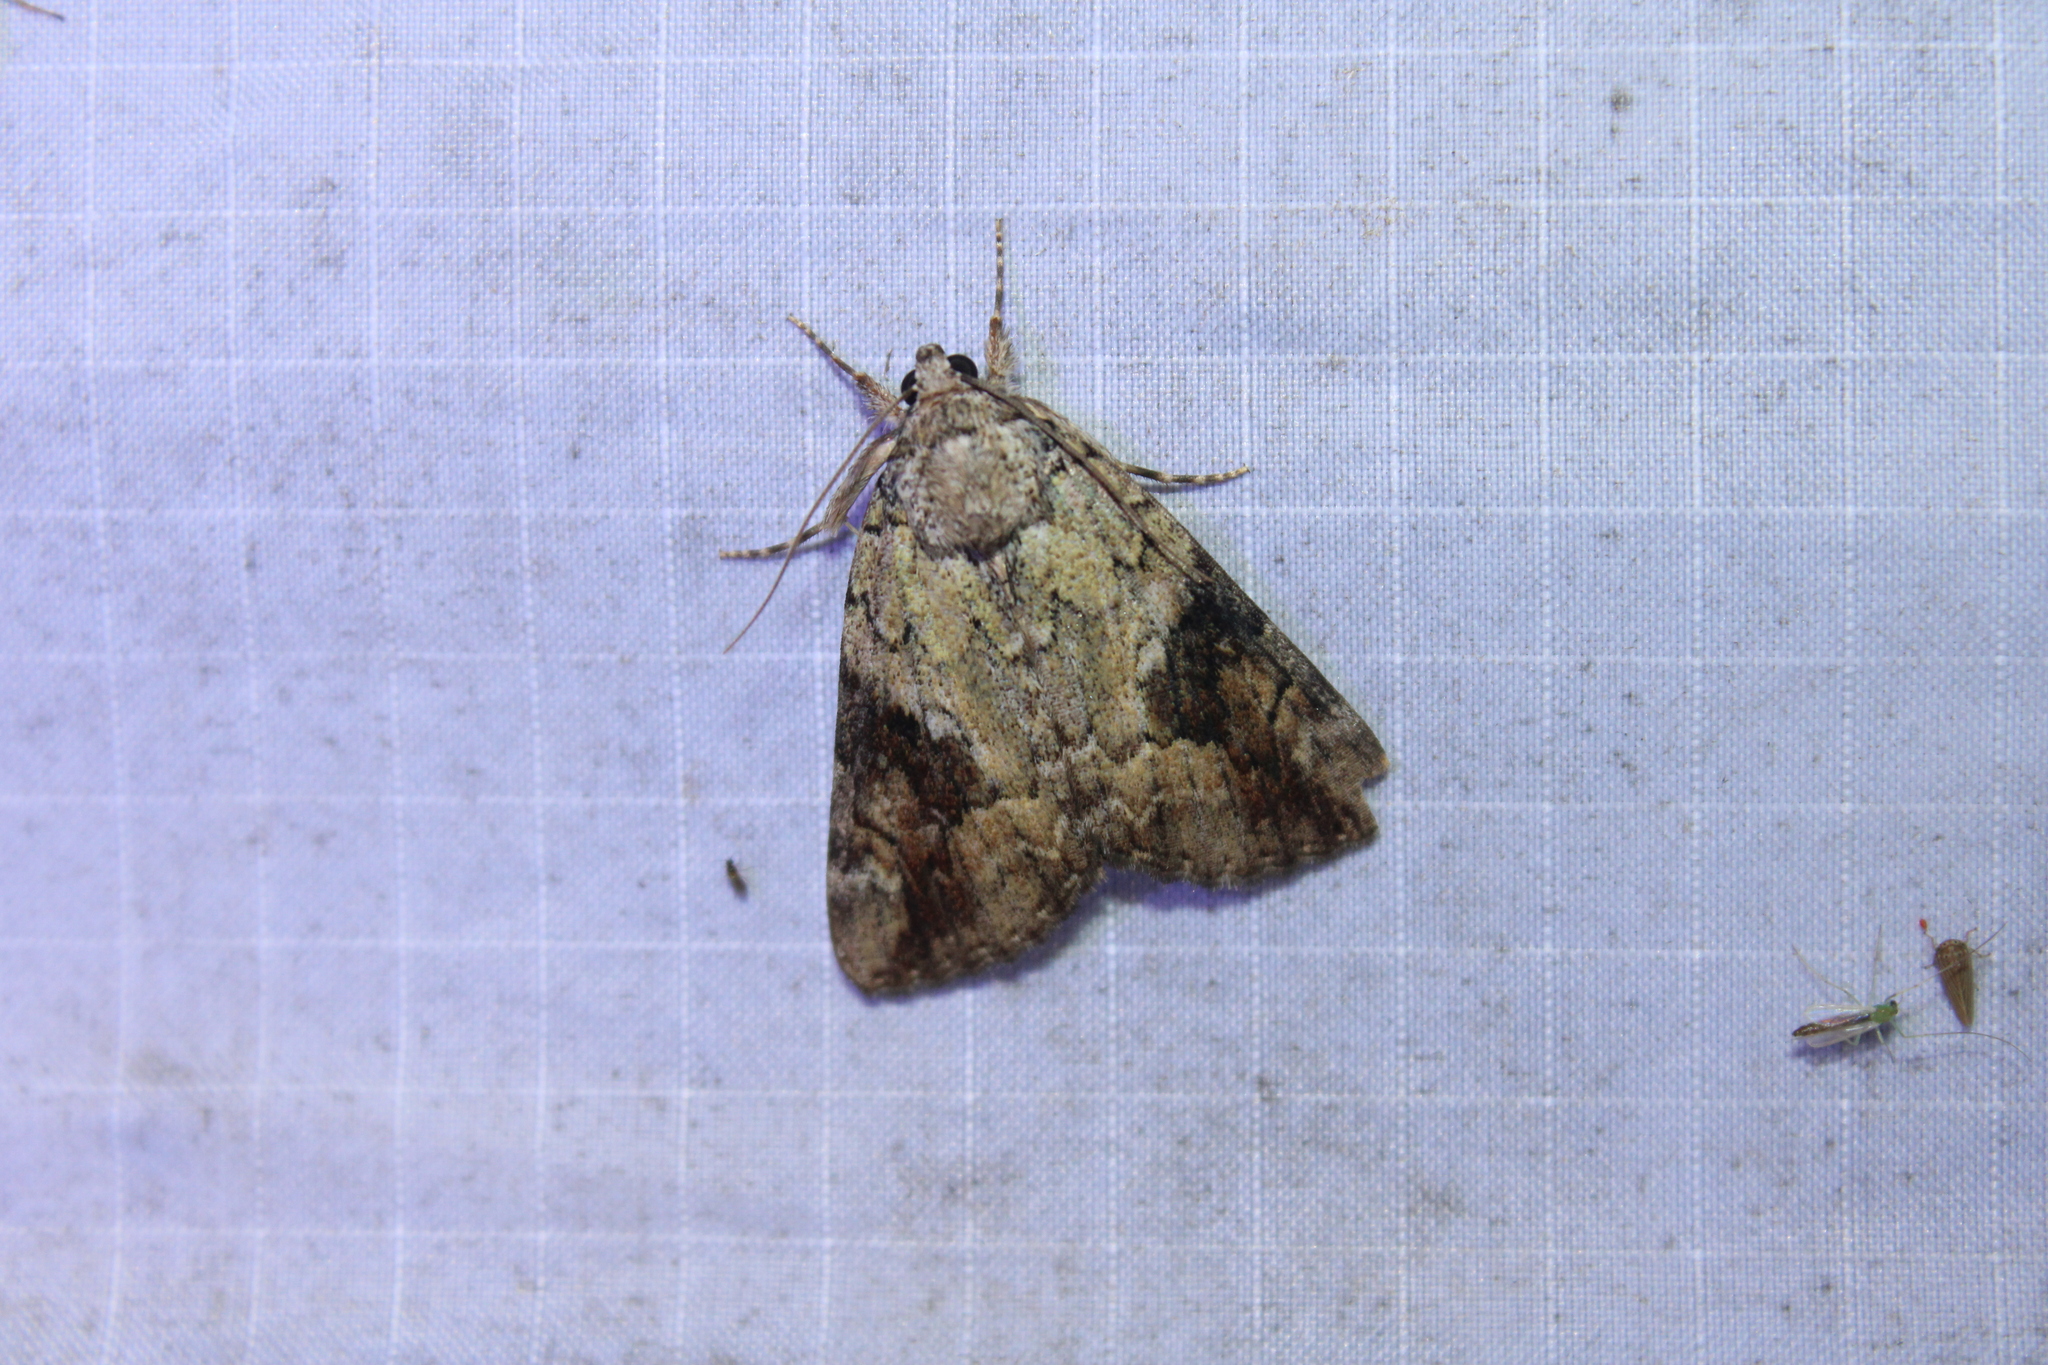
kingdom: Animalia
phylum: Arthropoda
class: Insecta
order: Lepidoptera
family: Erebidae
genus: Catocala
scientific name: Catocala micronympha
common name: Little nymph underwing
